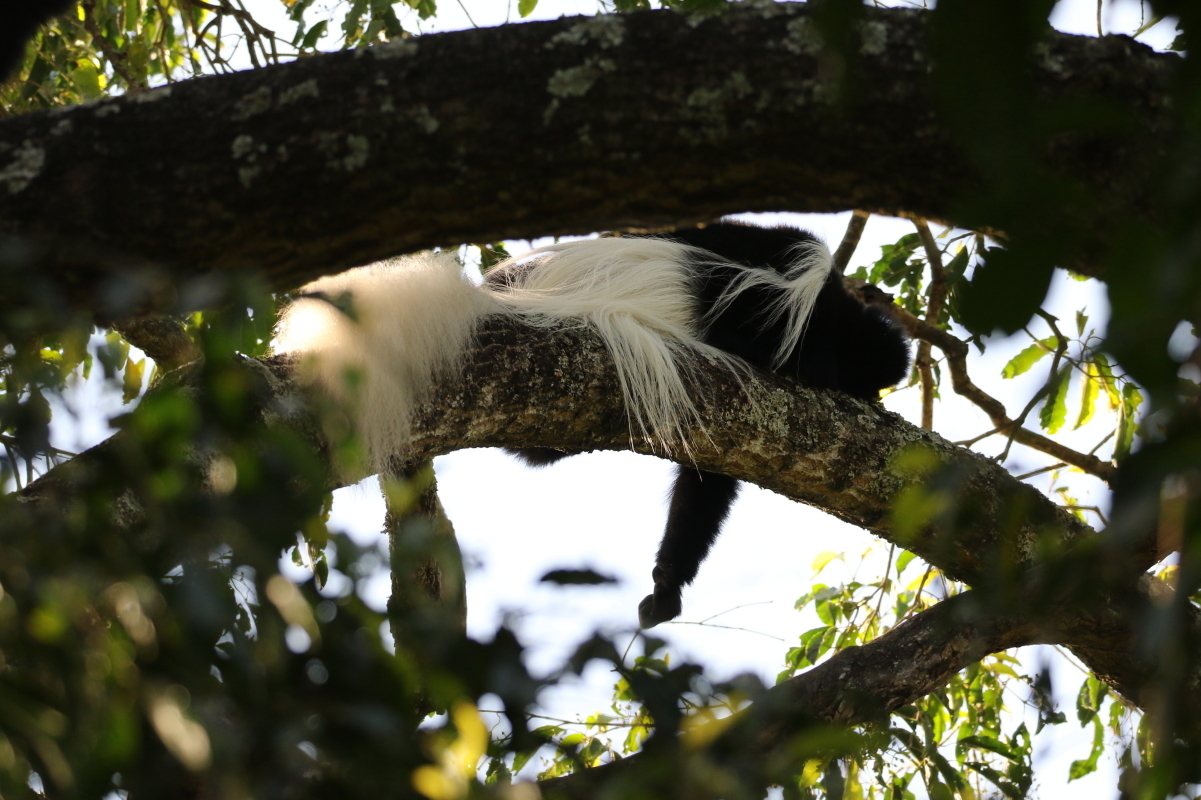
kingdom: Animalia
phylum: Chordata
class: Mammalia
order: Primates
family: Cercopithecidae
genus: Colobus
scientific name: Colobus caudatus
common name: Mount kilimanjaro guereza
